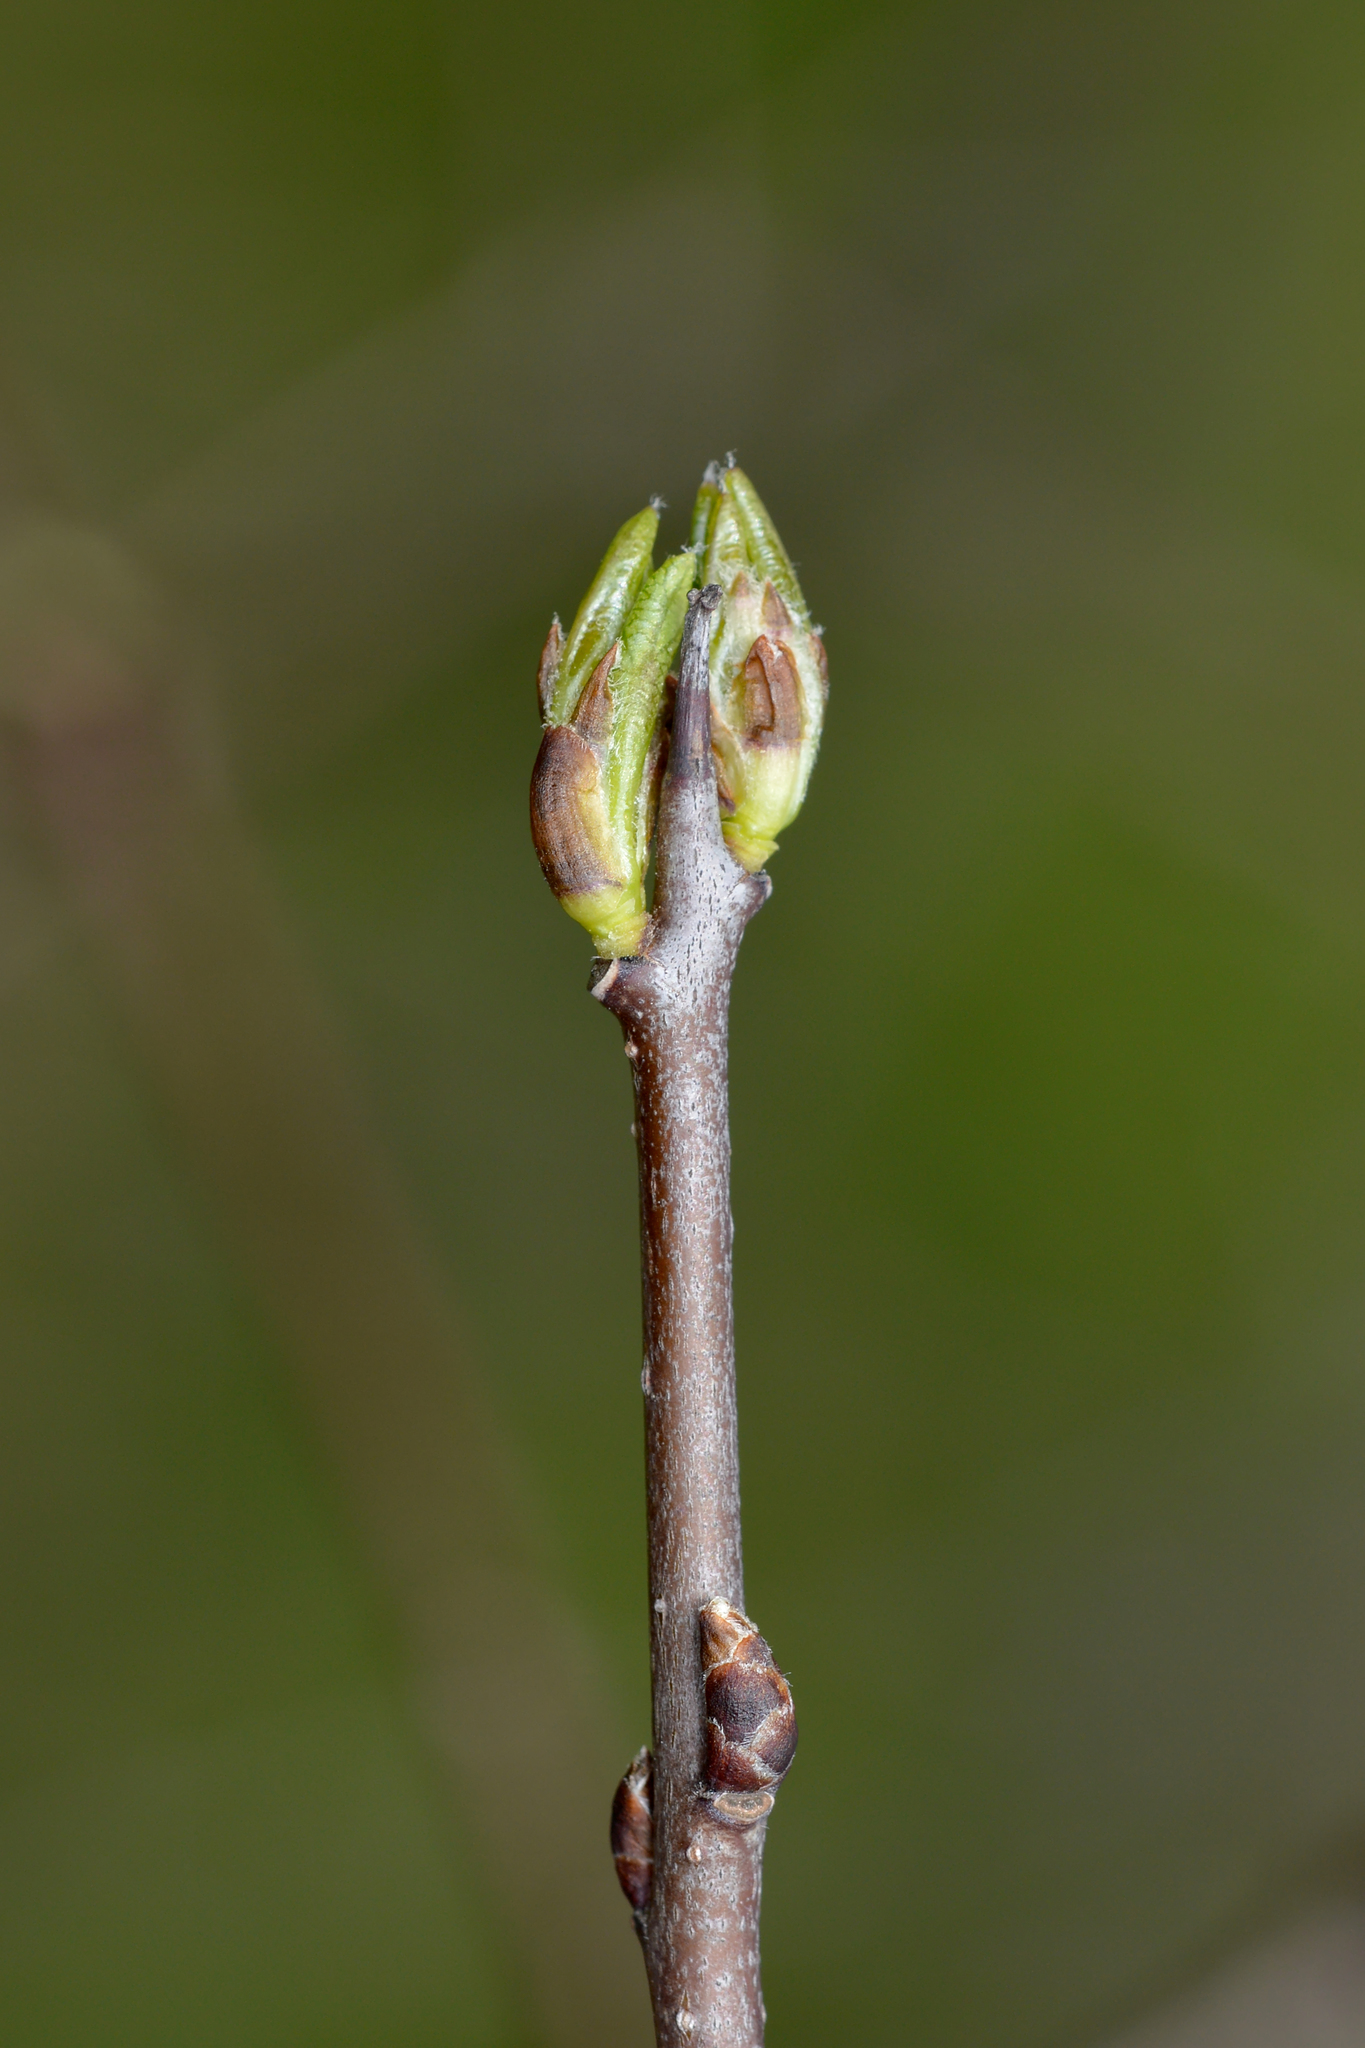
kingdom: Plantae
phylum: Tracheophyta
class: Magnoliopsida
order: Rosales
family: Rhamnaceae
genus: Rhamnus
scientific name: Rhamnus cathartica
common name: Common buckthorn
